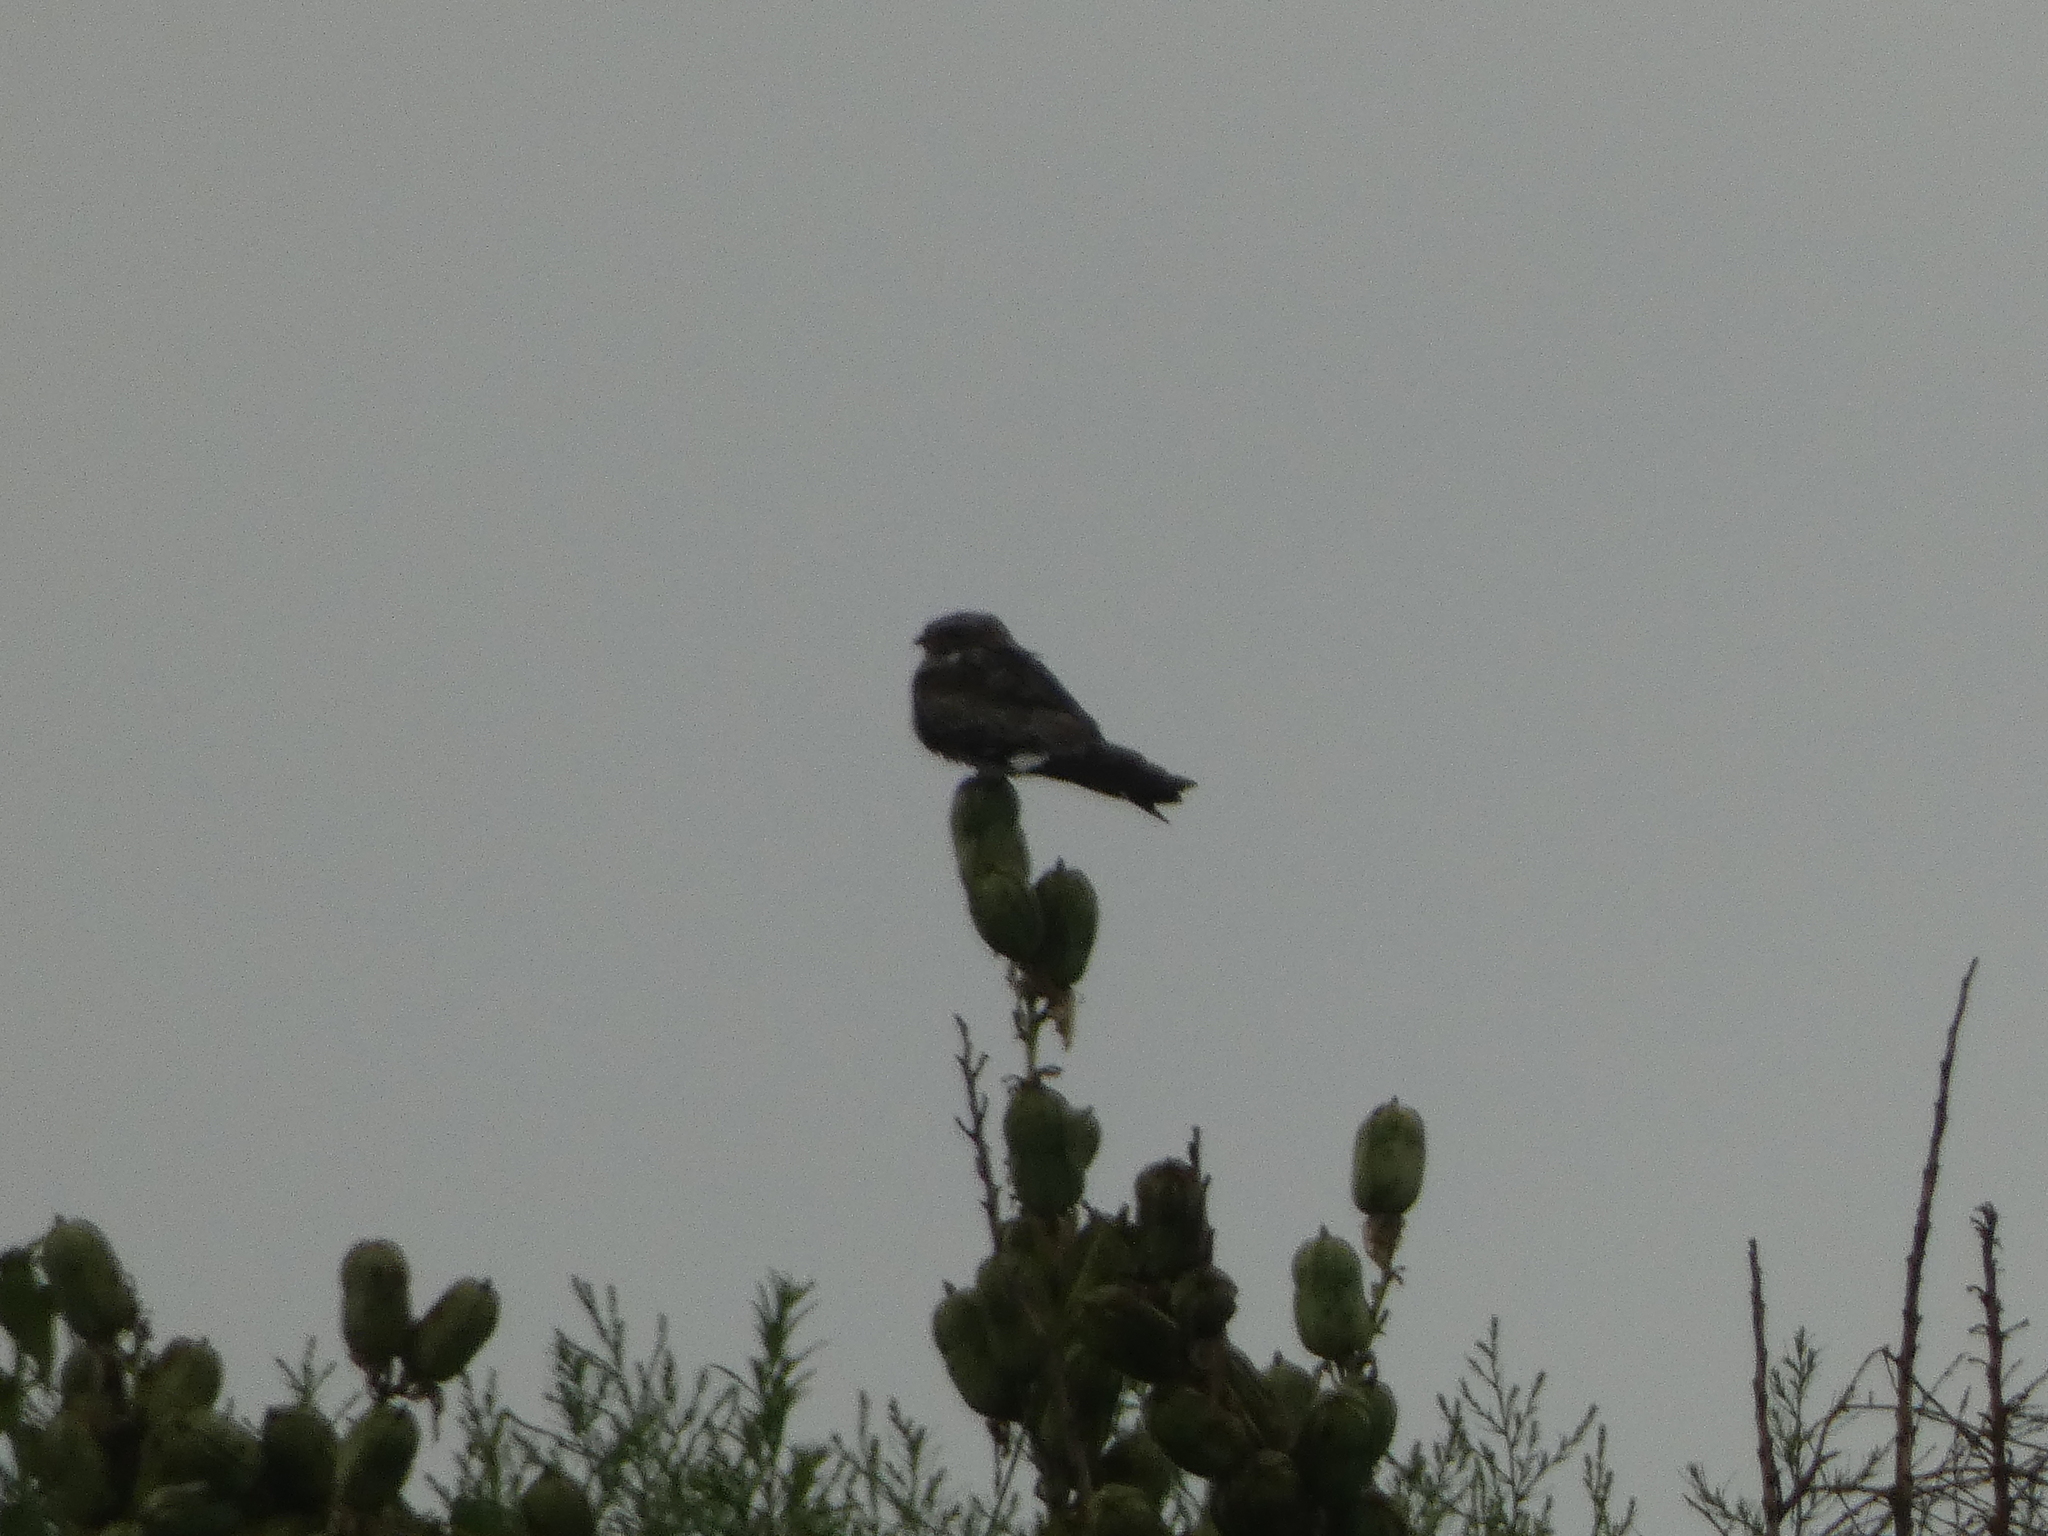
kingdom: Animalia
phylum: Chordata
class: Aves
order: Caprimulgiformes
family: Caprimulgidae
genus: Chordeiles
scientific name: Chordeiles minor
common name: Common nighthawk
